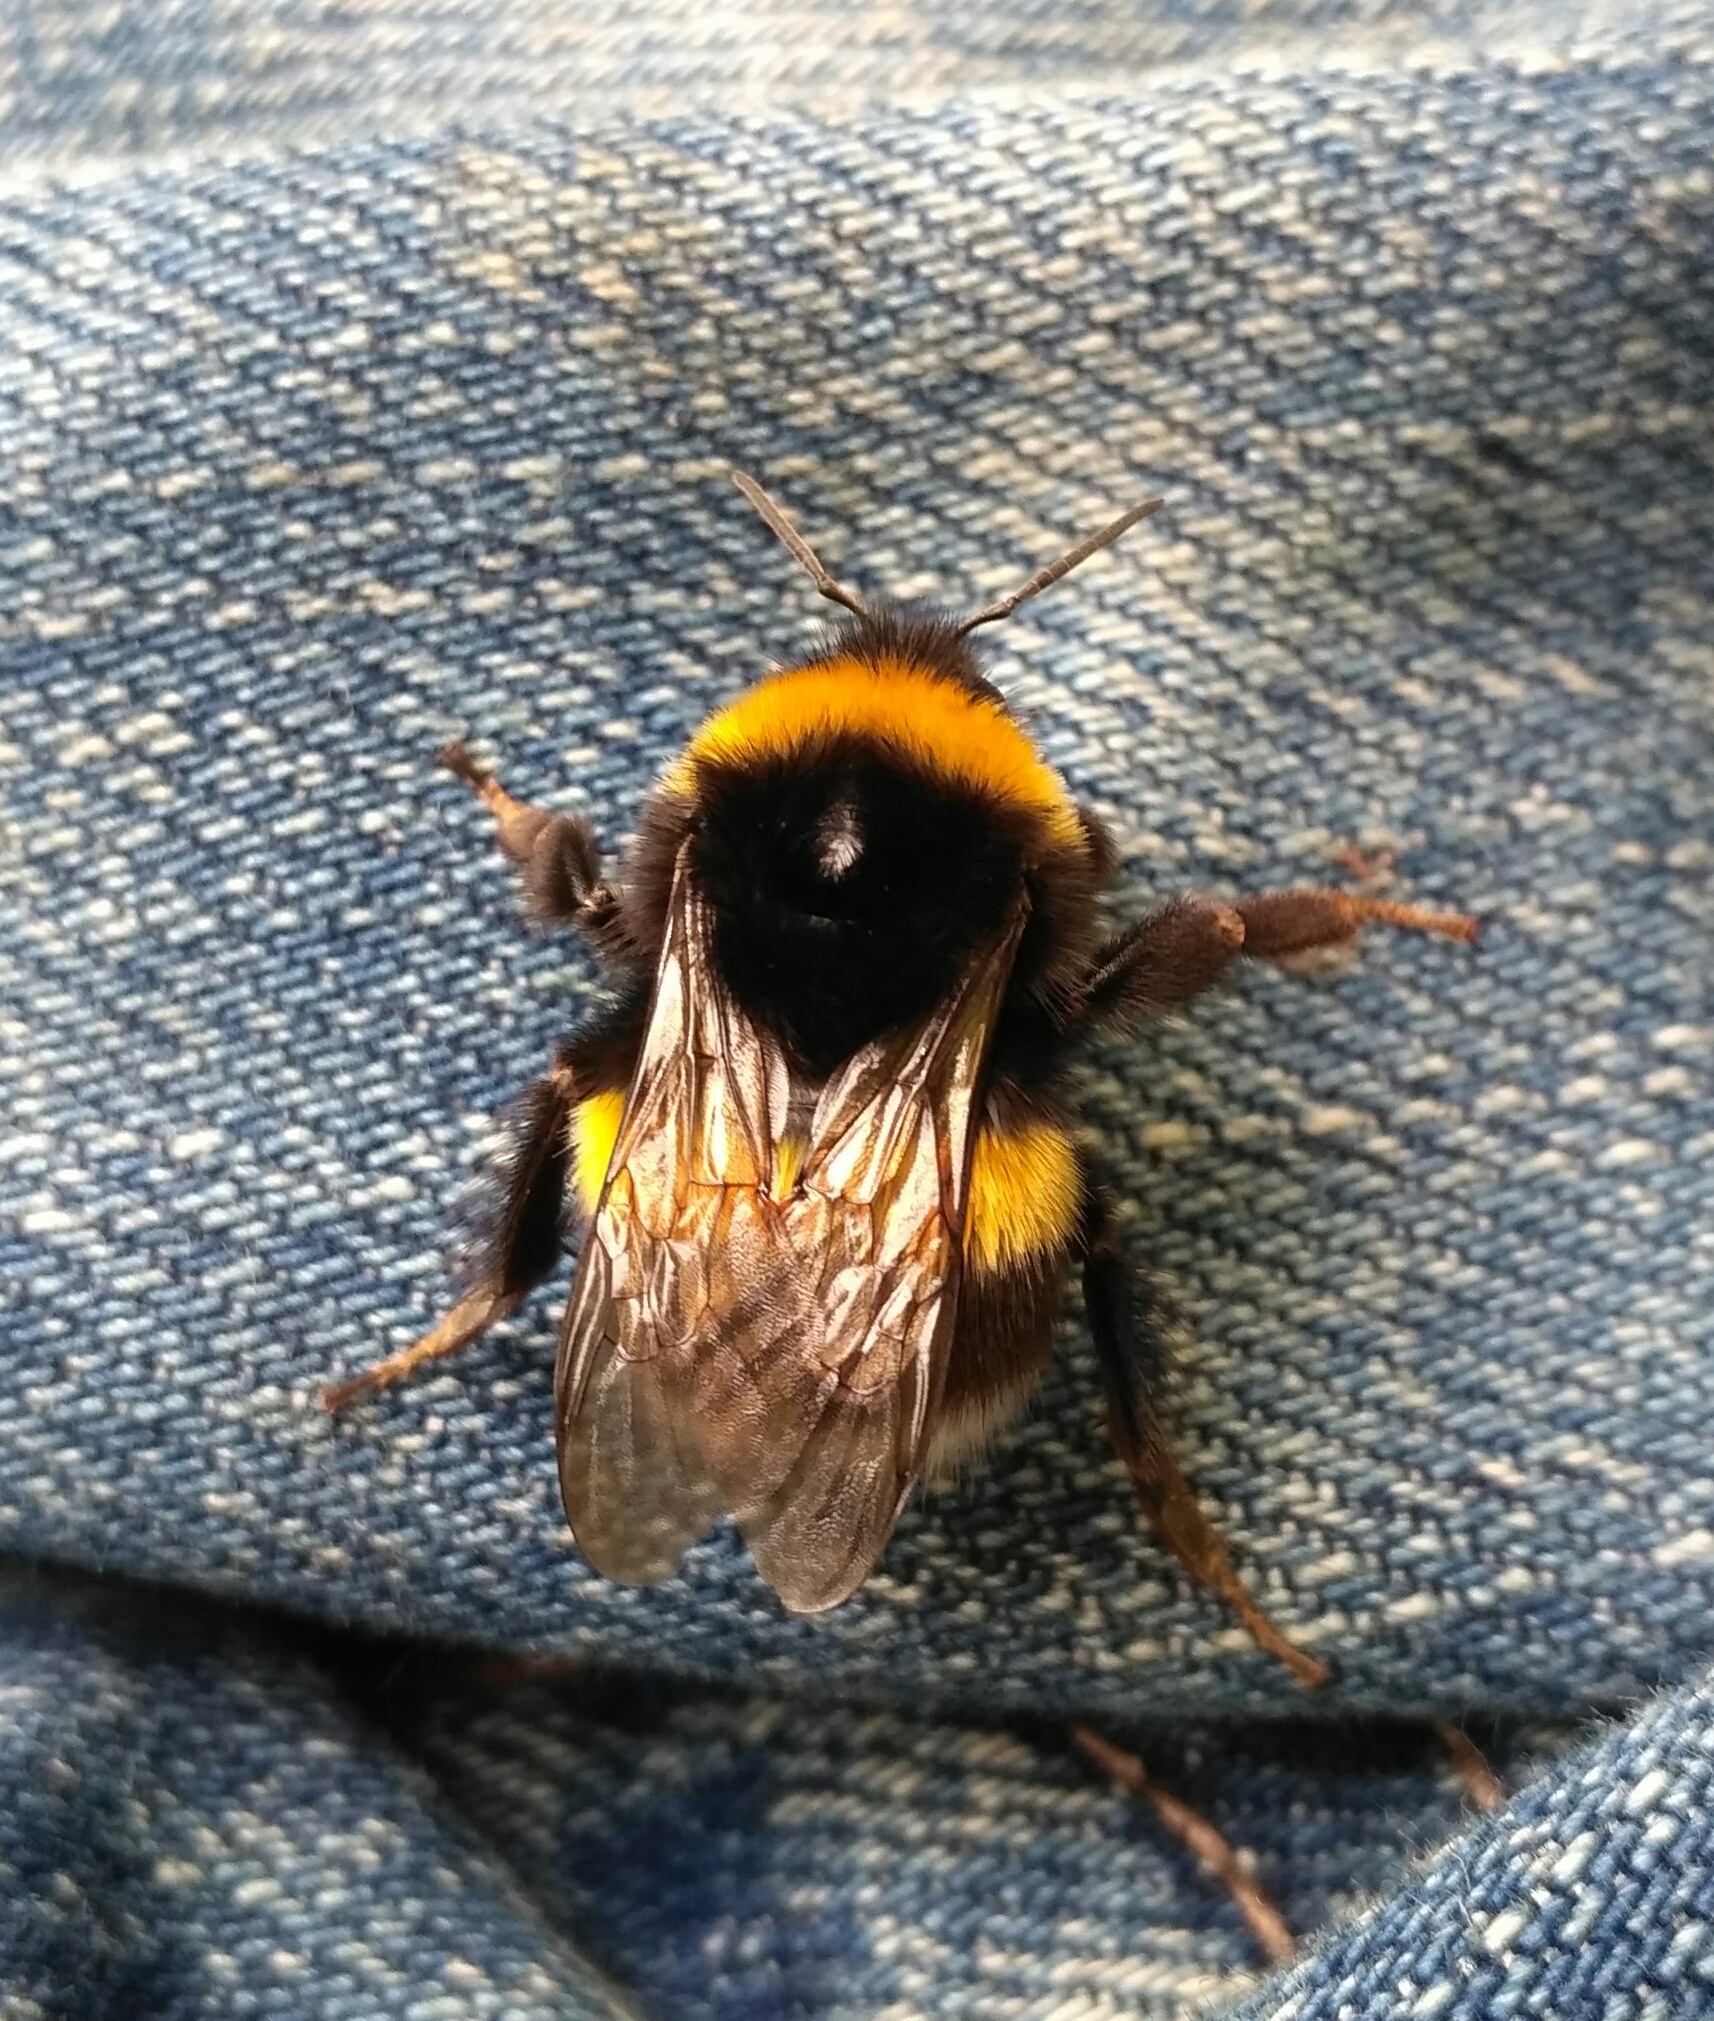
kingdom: Animalia
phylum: Arthropoda
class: Insecta
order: Hymenoptera
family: Apidae
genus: Bombus
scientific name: Bombus
